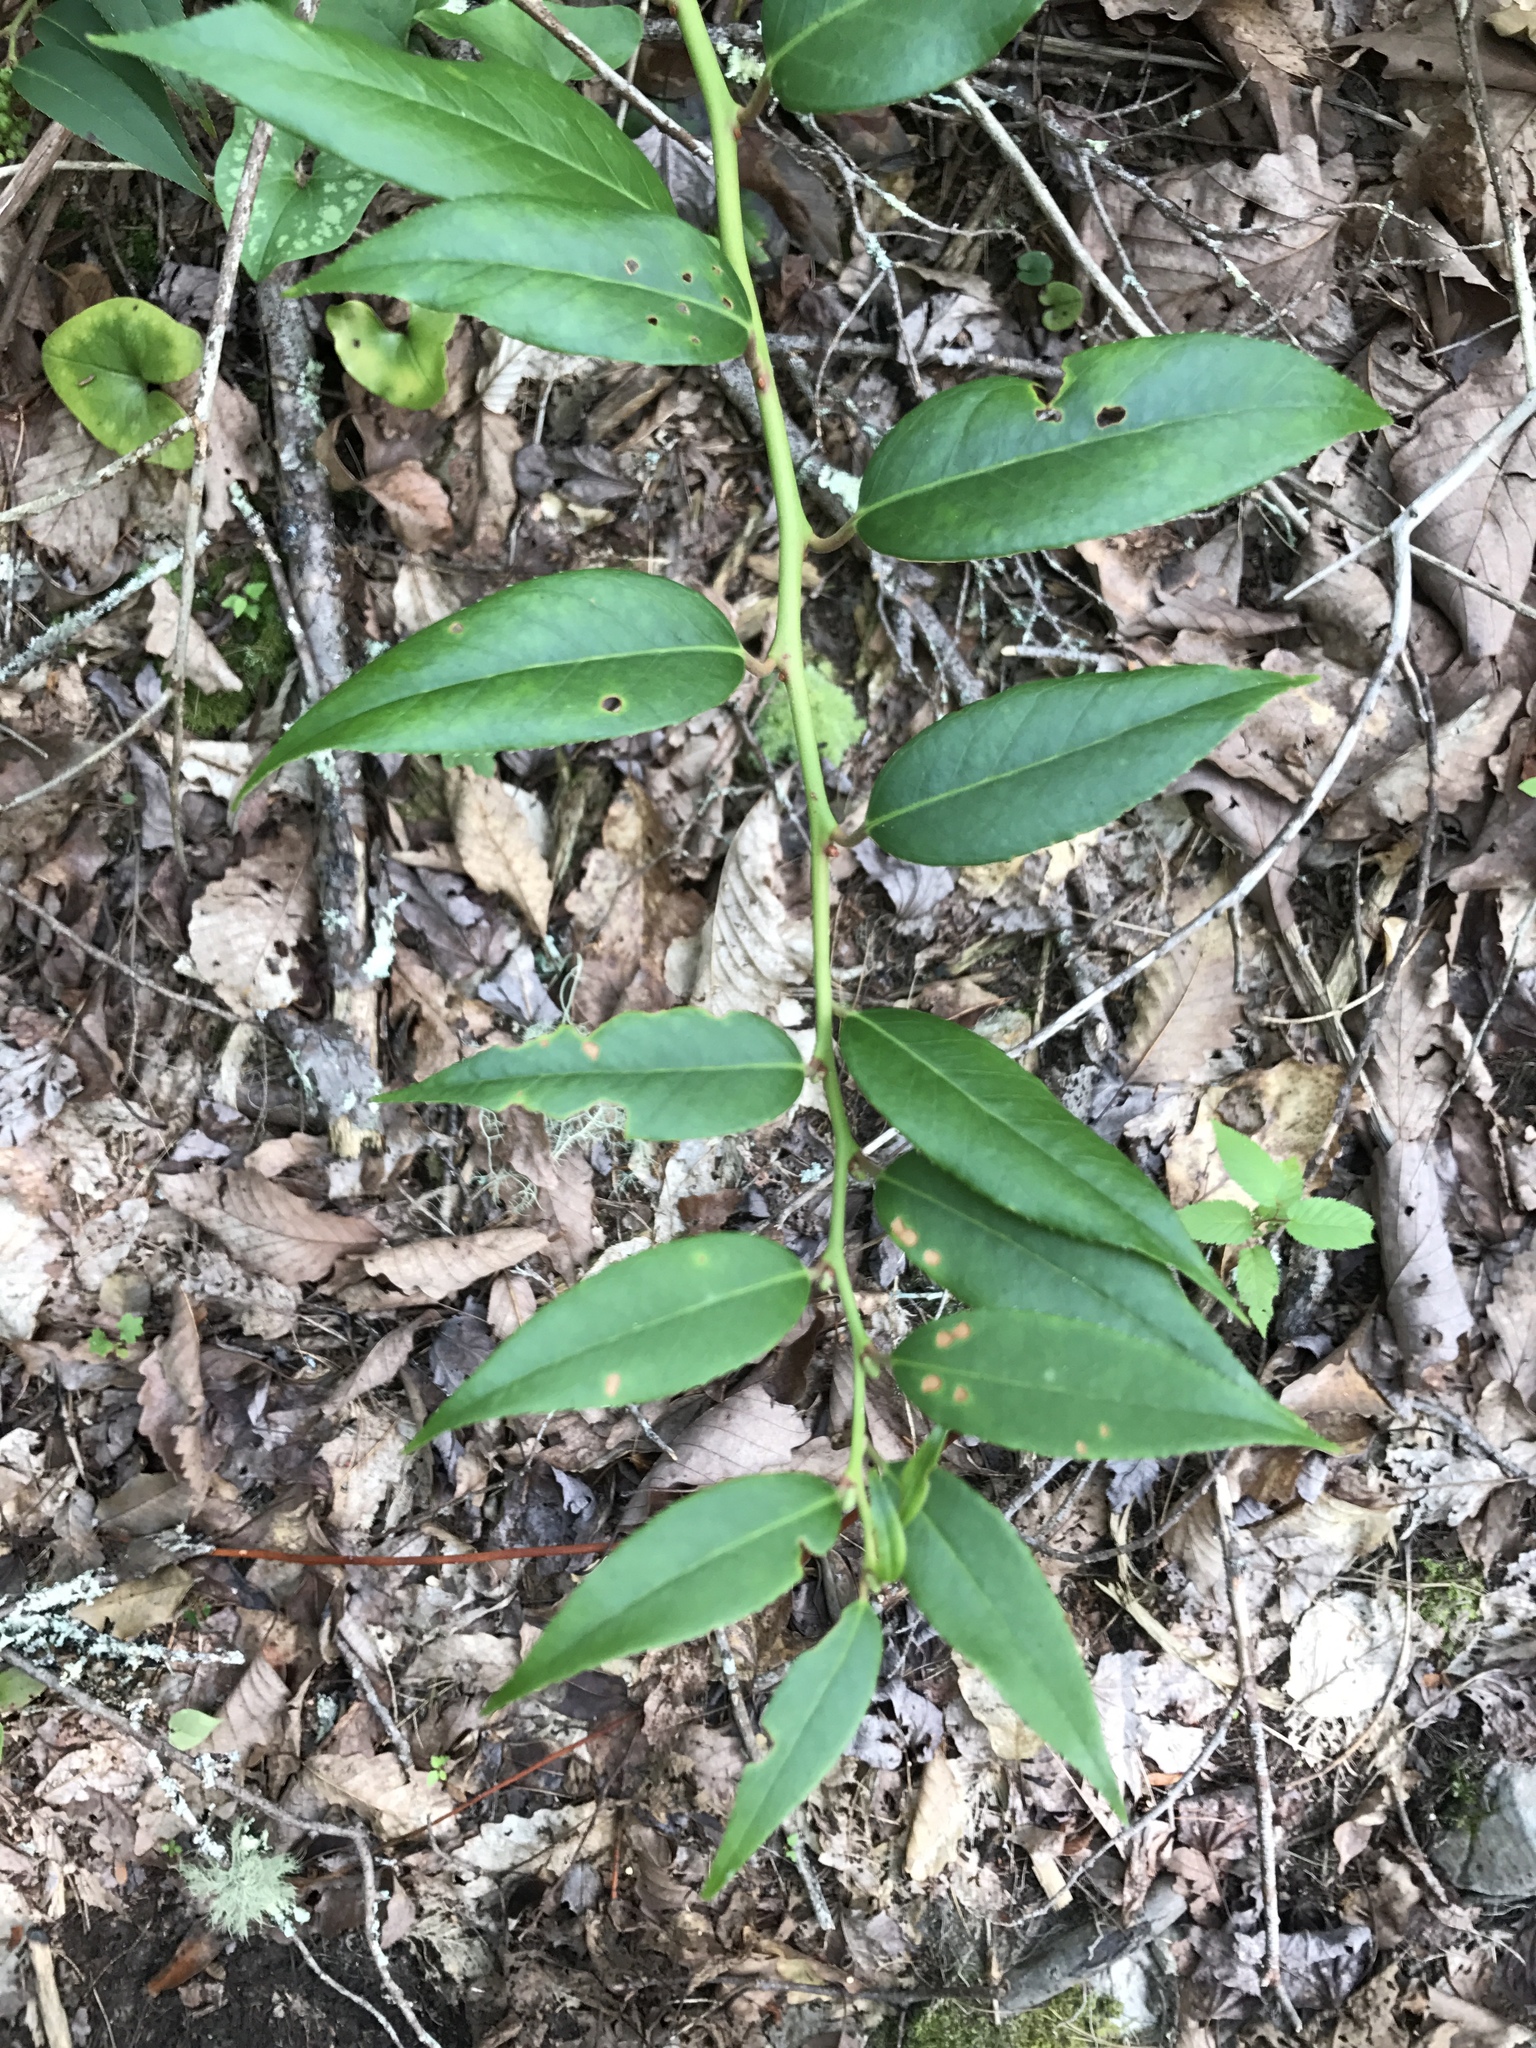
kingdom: Plantae
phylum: Tracheophyta
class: Magnoliopsida
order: Ericales
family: Ericaceae
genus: Leucothoe
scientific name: Leucothoe fontanesiana
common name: Fetterbush
